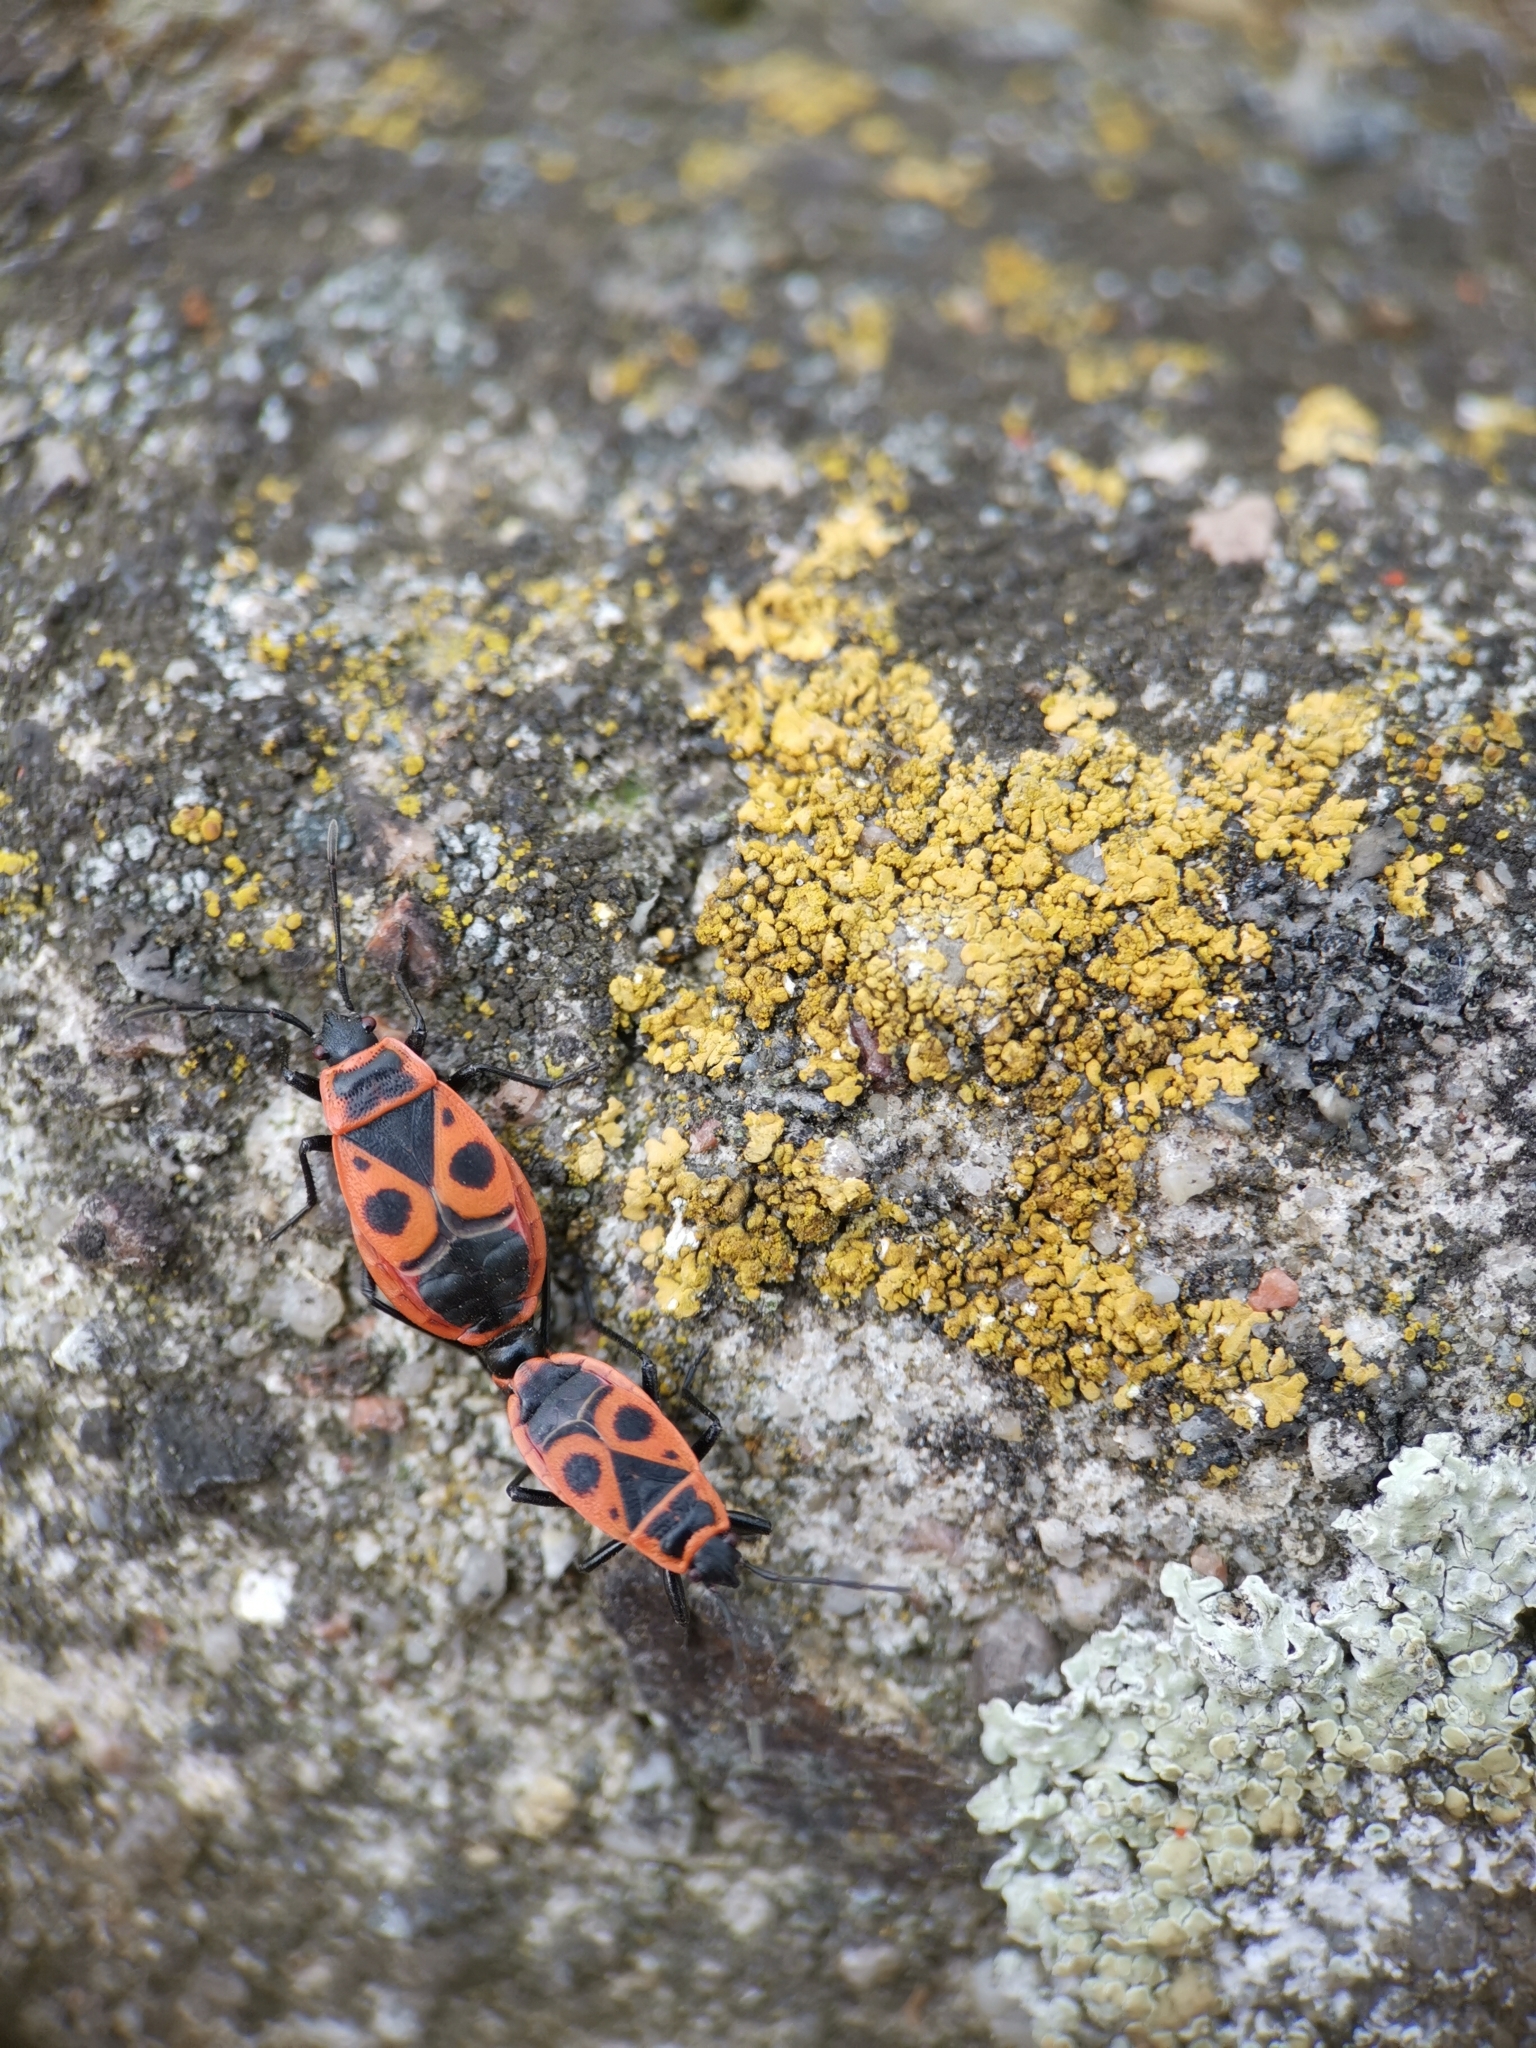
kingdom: Animalia
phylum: Arthropoda
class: Insecta
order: Hemiptera
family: Pyrrhocoridae
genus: Pyrrhocoris
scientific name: Pyrrhocoris apterus
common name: Firebug
